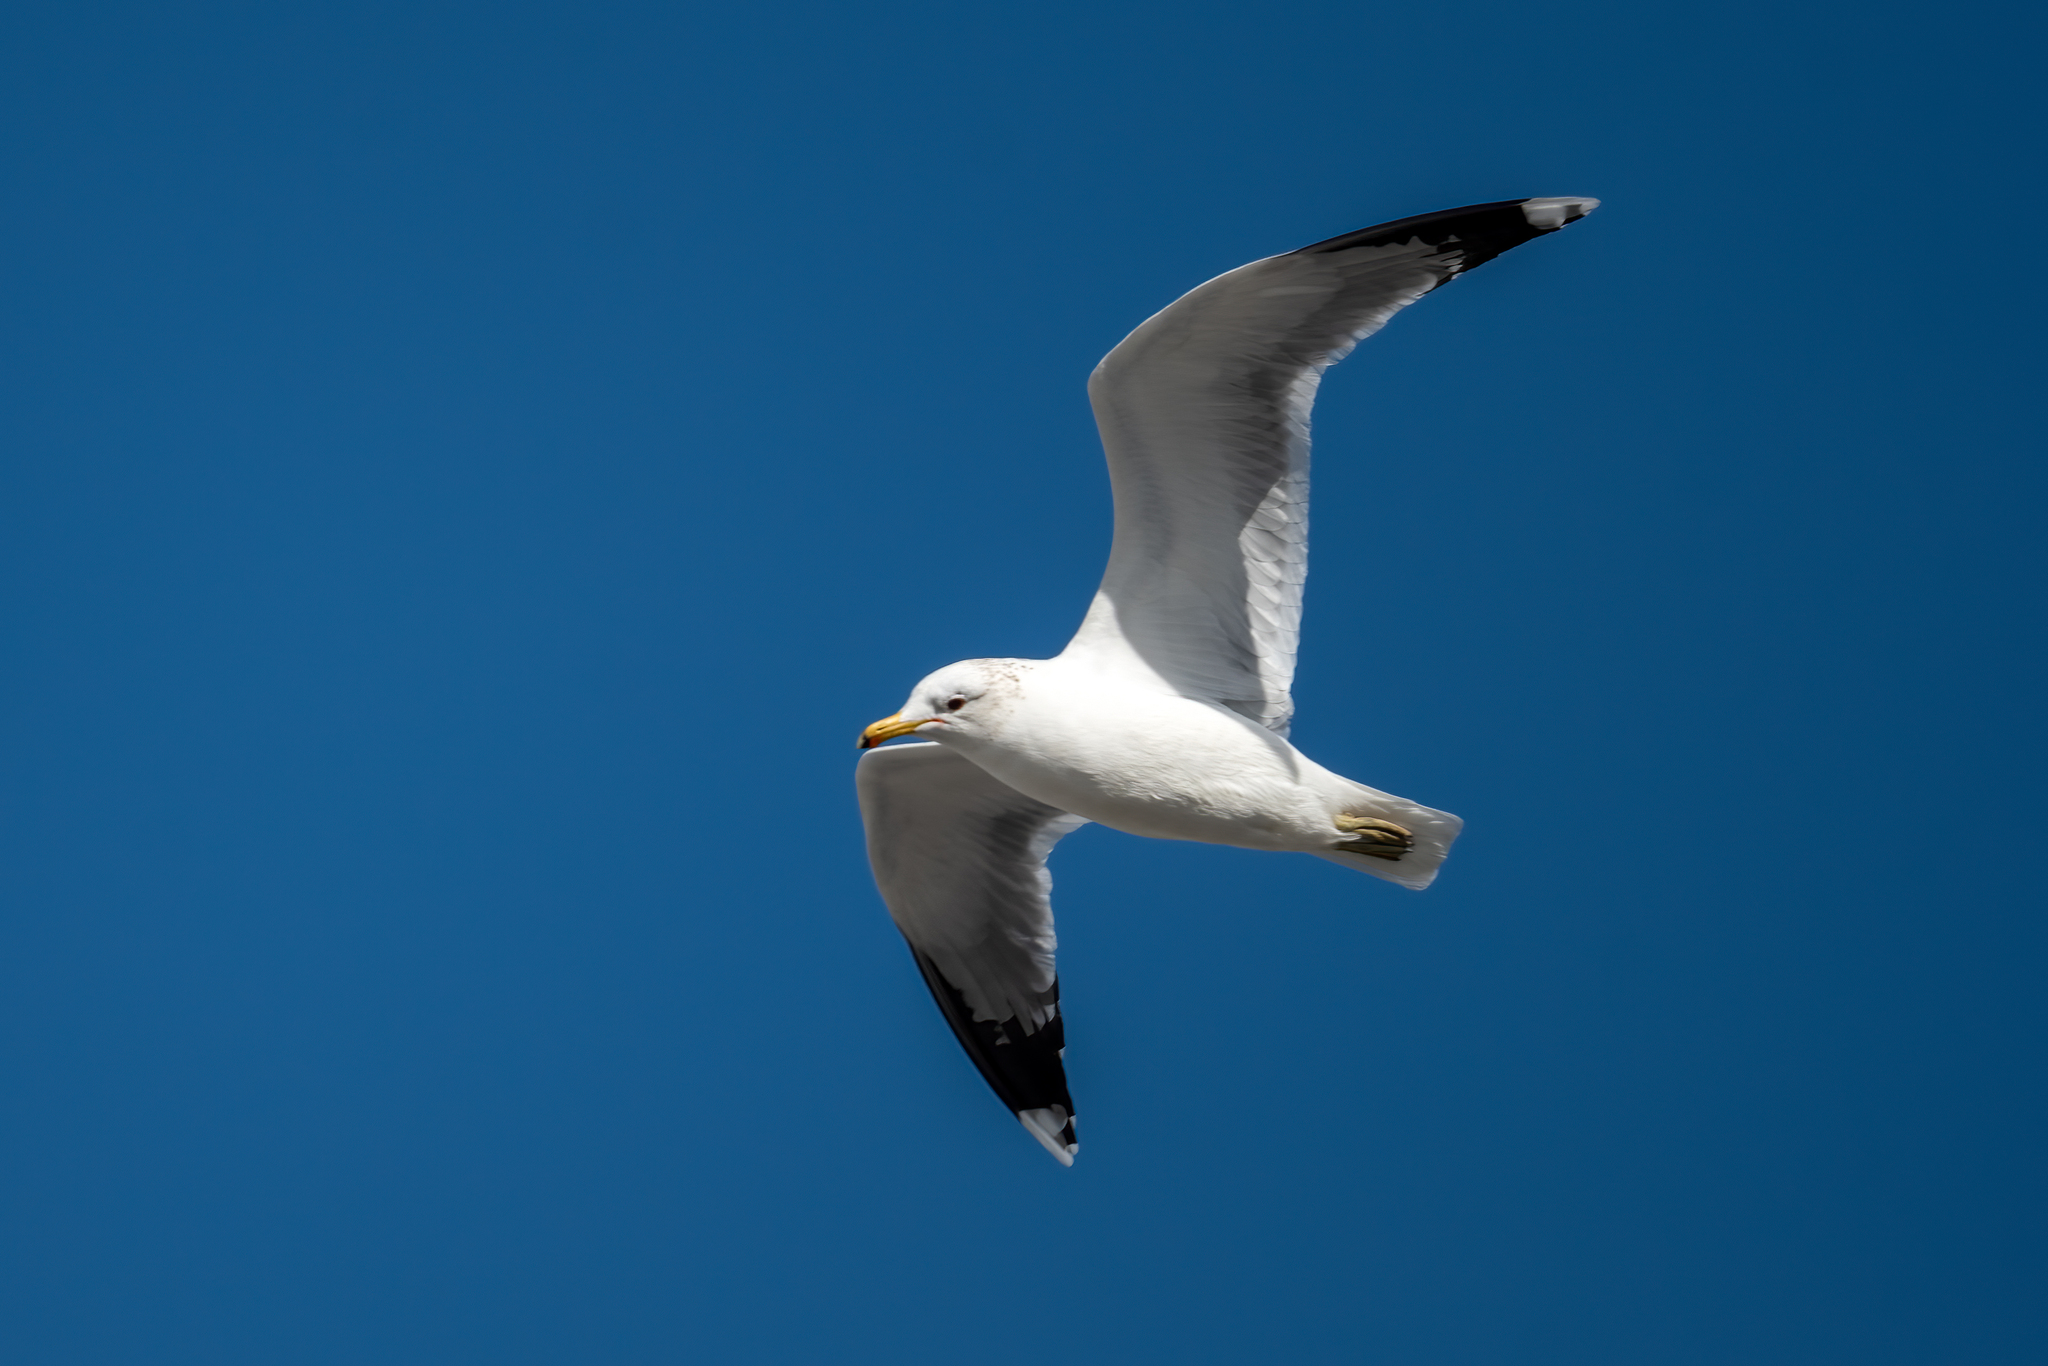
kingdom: Animalia
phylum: Chordata
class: Aves
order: Charadriiformes
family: Laridae
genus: Larus
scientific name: Larus californicus
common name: California gull
